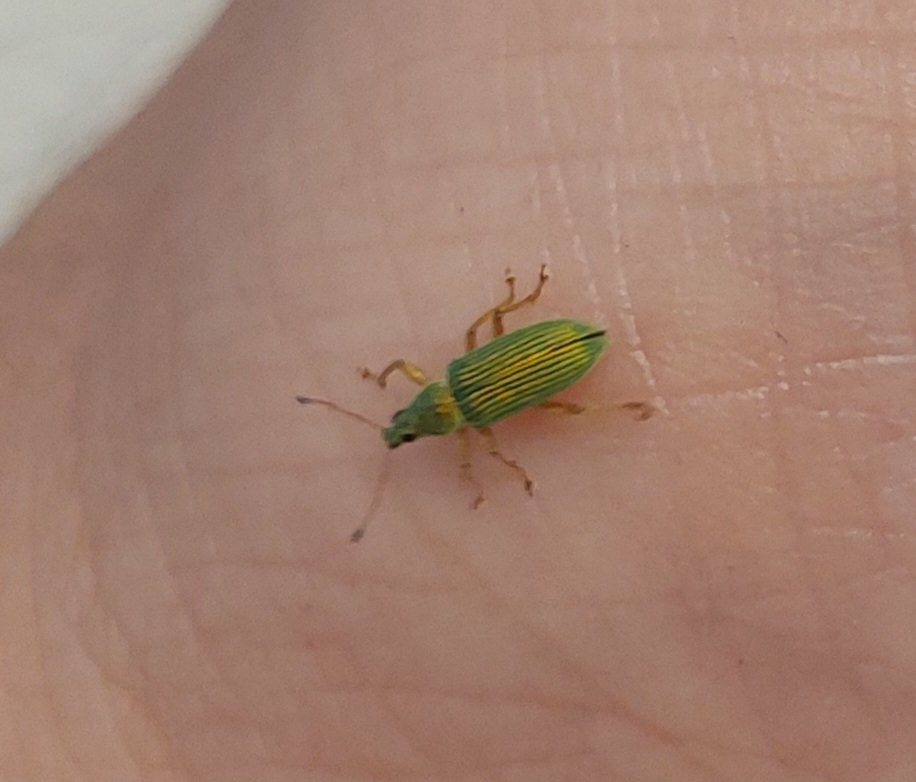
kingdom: Animalia
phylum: Arthropoda
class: Insecta
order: Coleoptera
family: Curculionidae
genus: Polydrusus
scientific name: Polydrusus formosus
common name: Weevil
